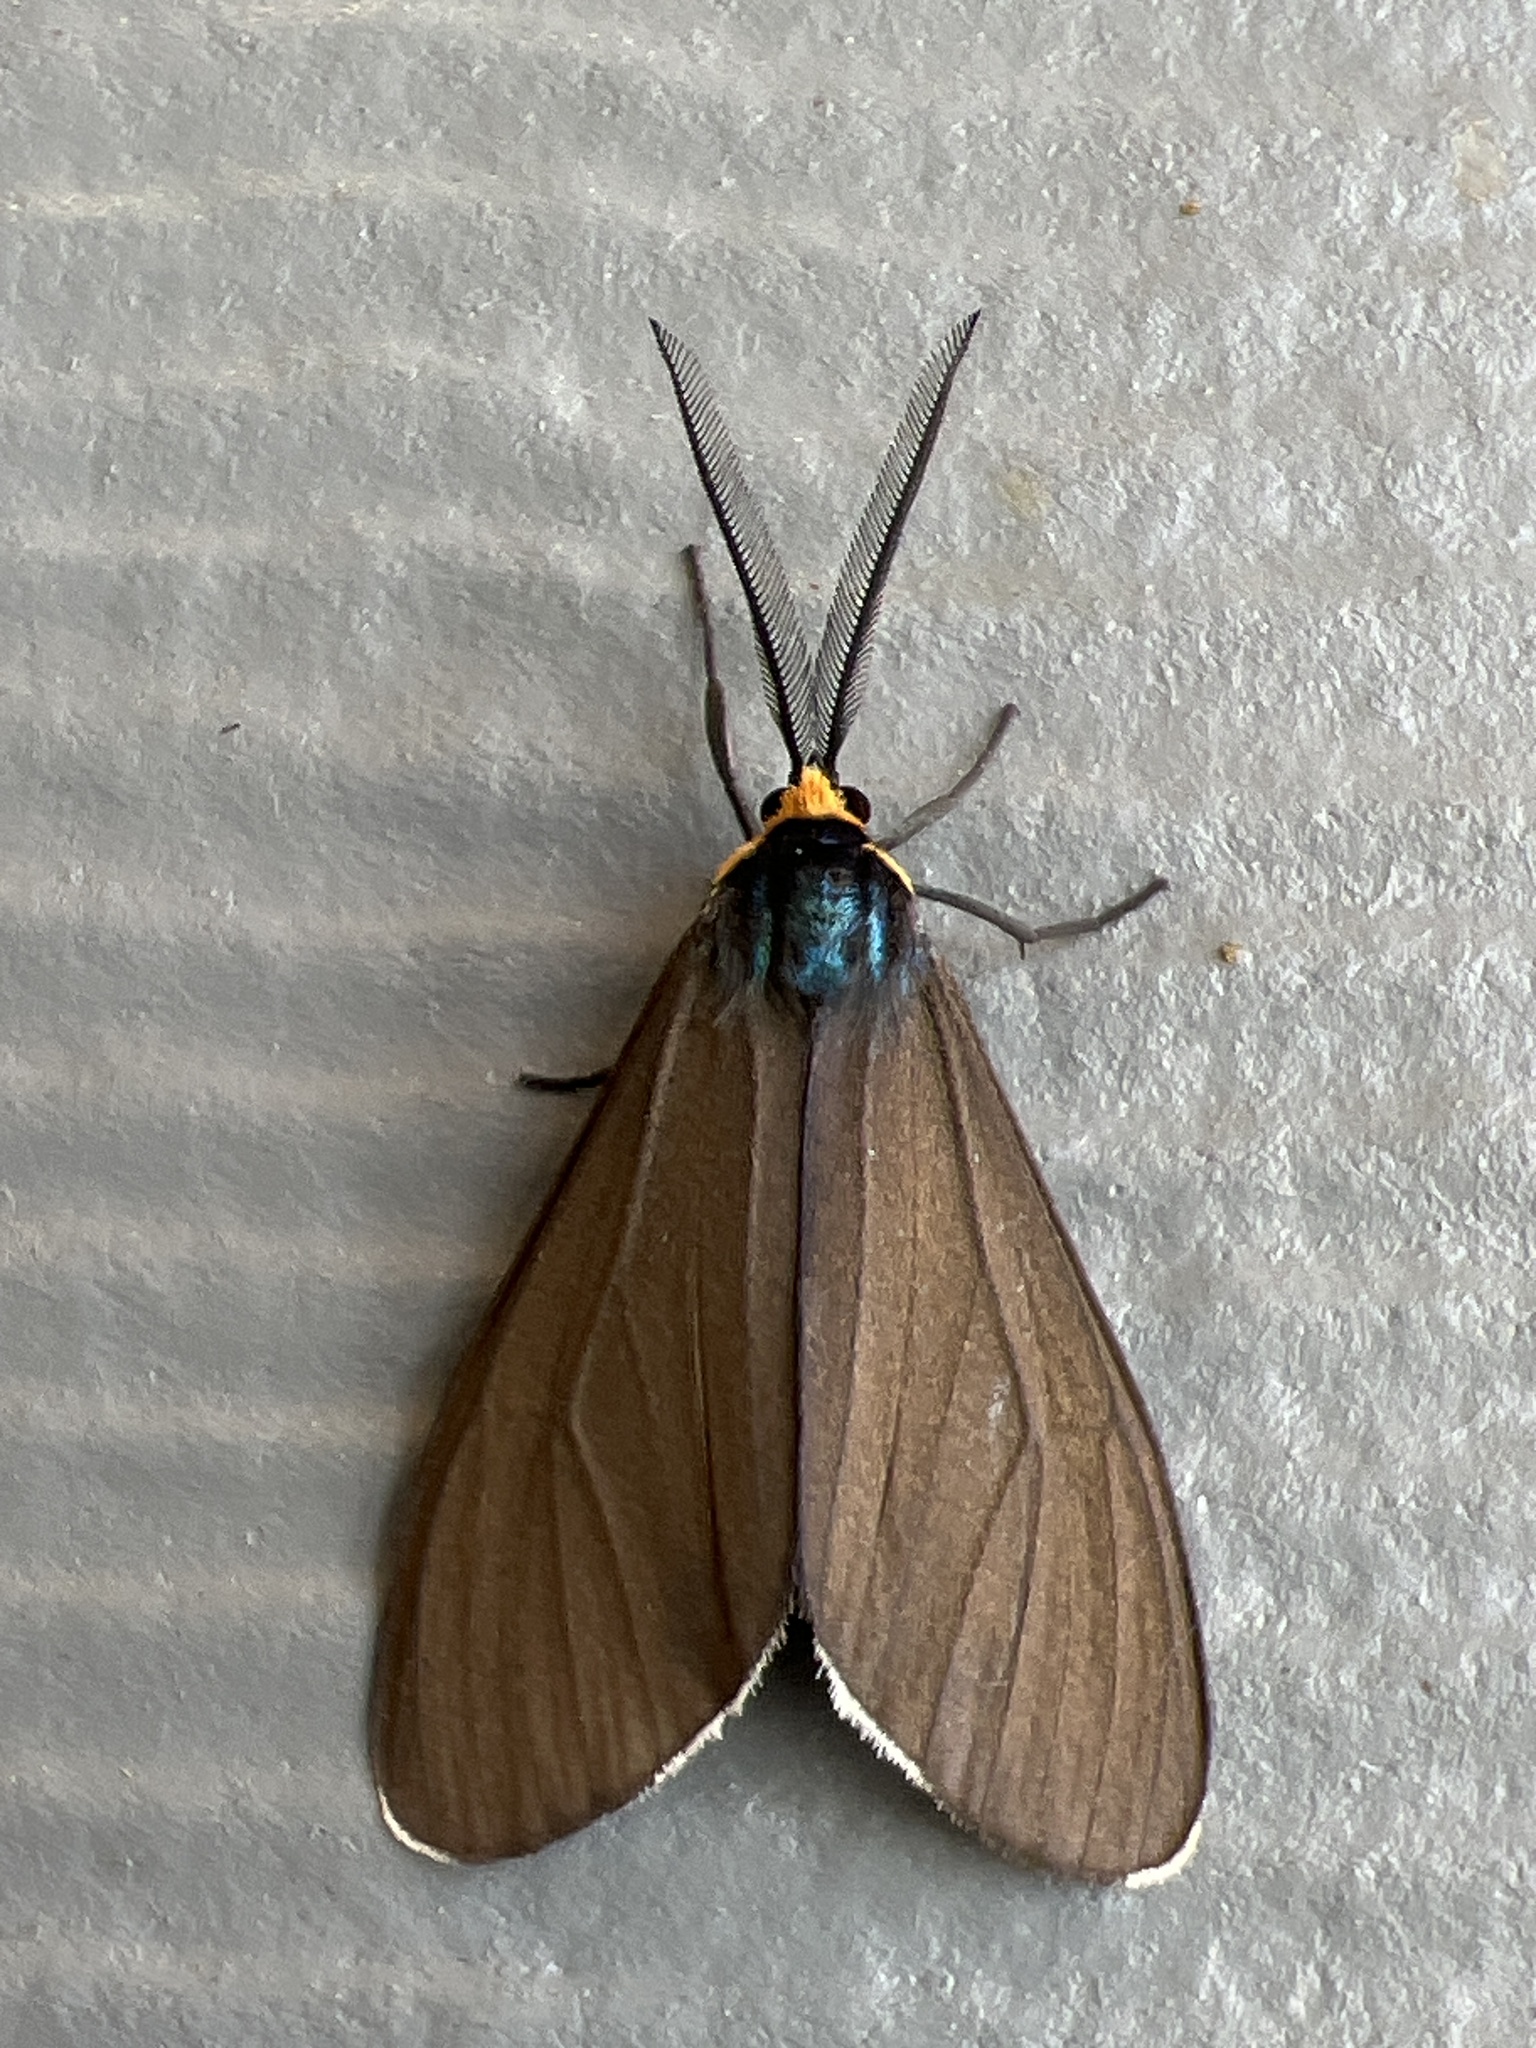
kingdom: Animalia
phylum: Arthropoda
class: Insecta
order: Lepidoptera
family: Erebidae
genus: Ctenucha
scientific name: Ctenucha virginica
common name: Virginia ctenucha moth
